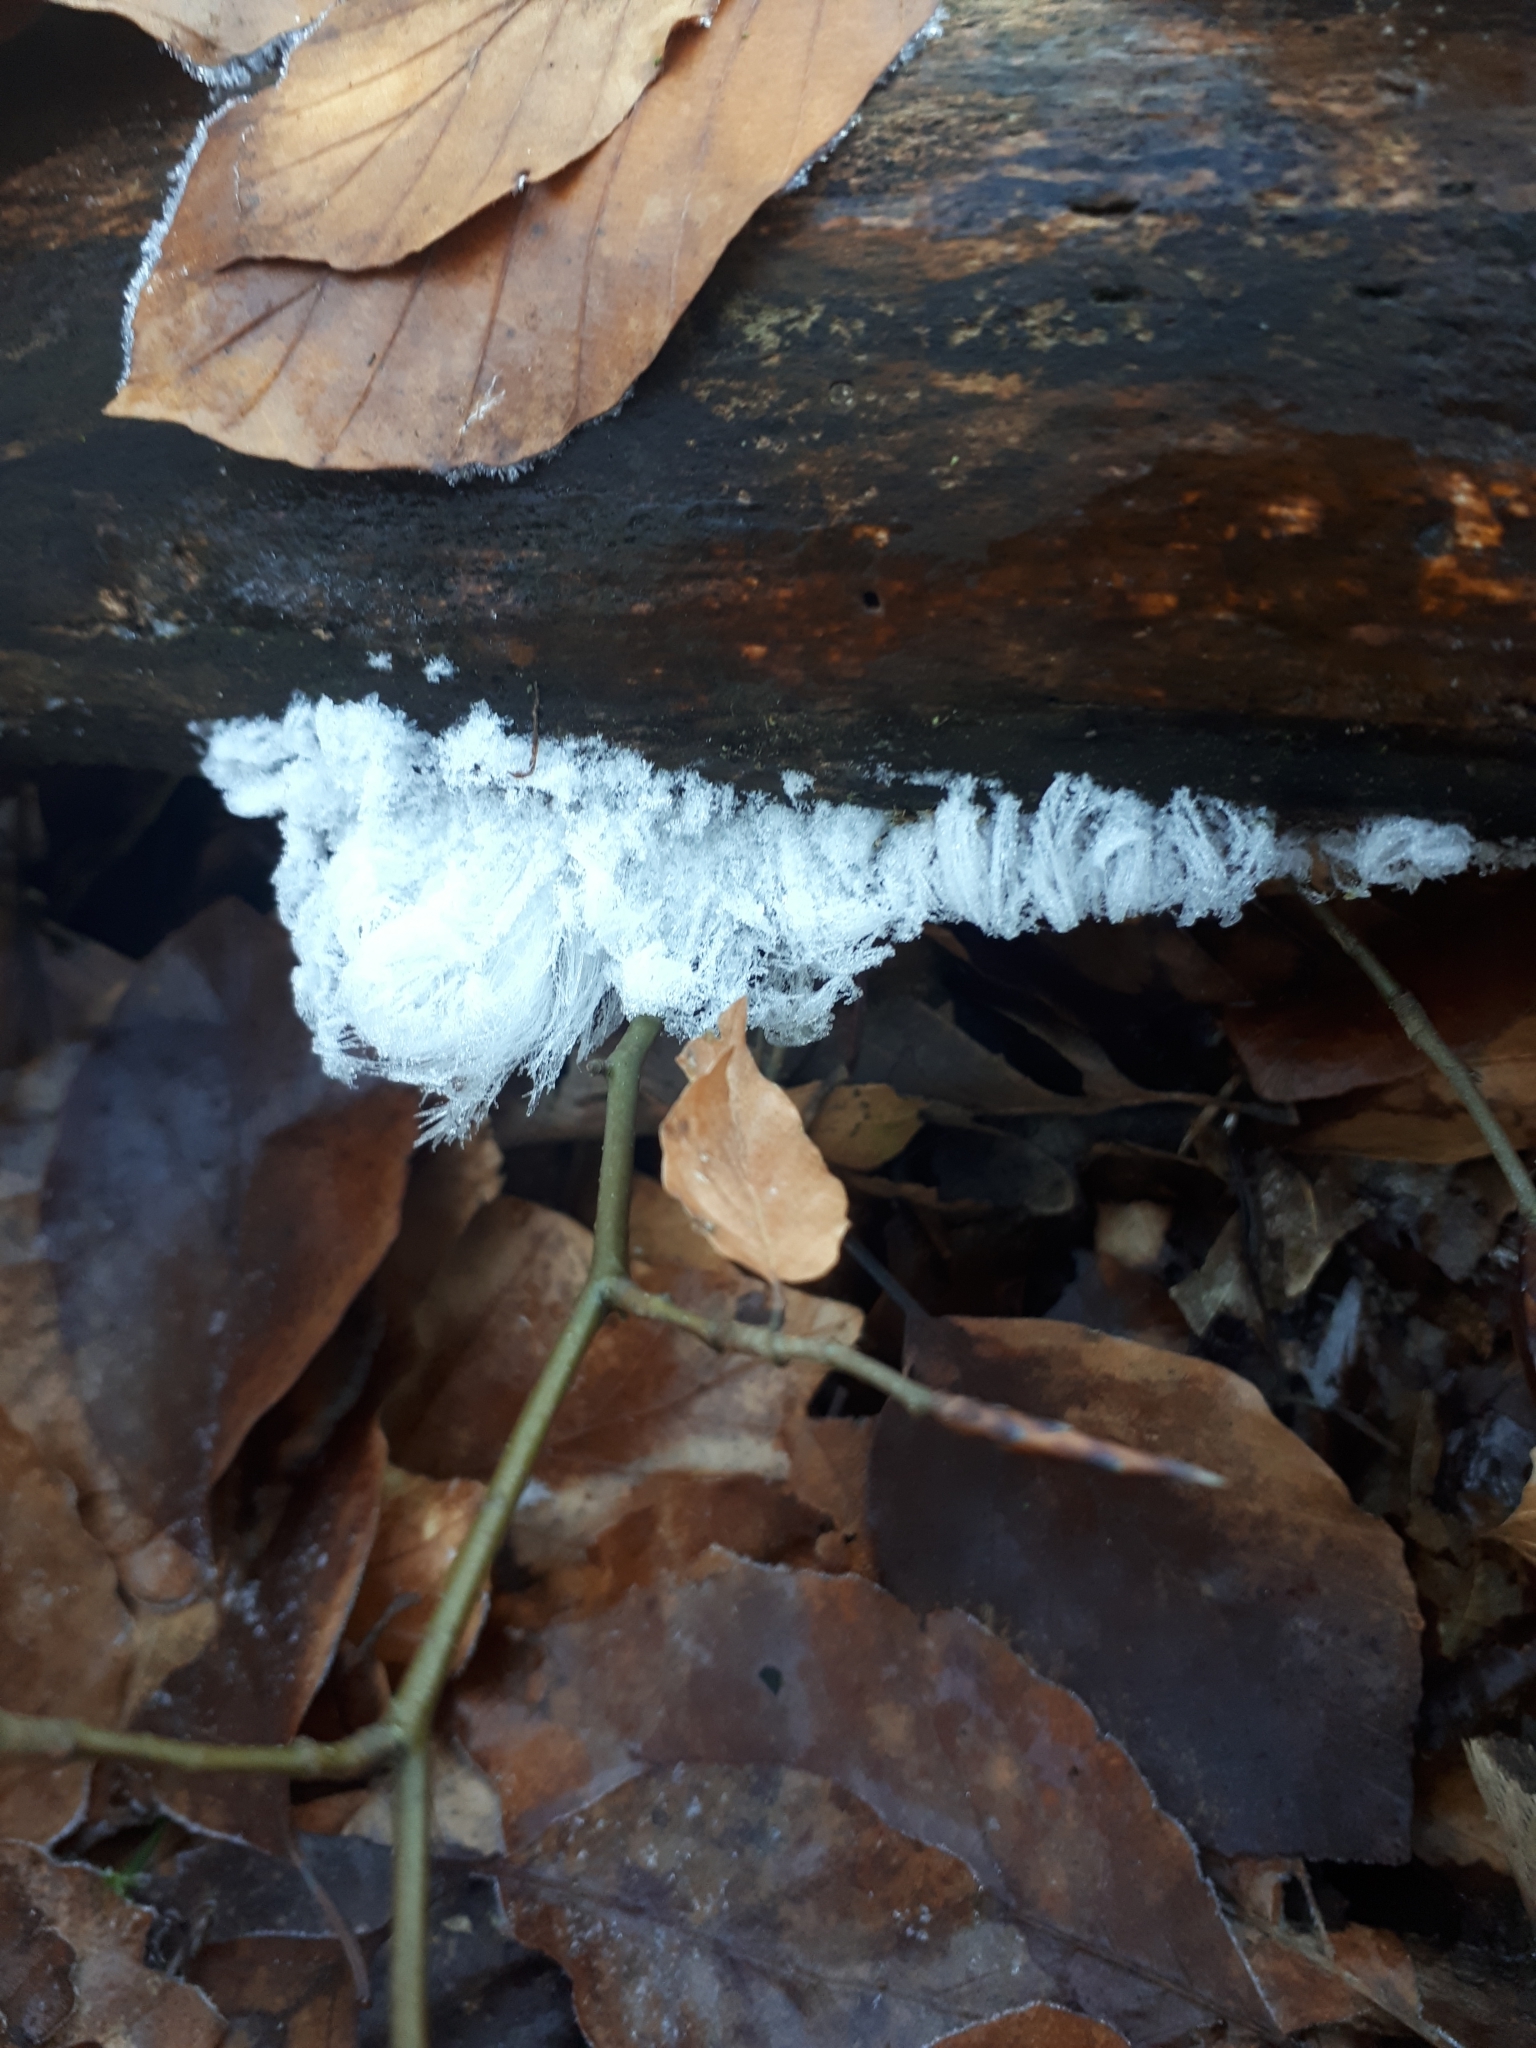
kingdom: Fungi
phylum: Basidiomycota
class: Agaricomycetes
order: Auriculariales
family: Auriculariaceae
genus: Exidiopsis
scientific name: Exidiopsis effusa
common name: Hair ice crust
